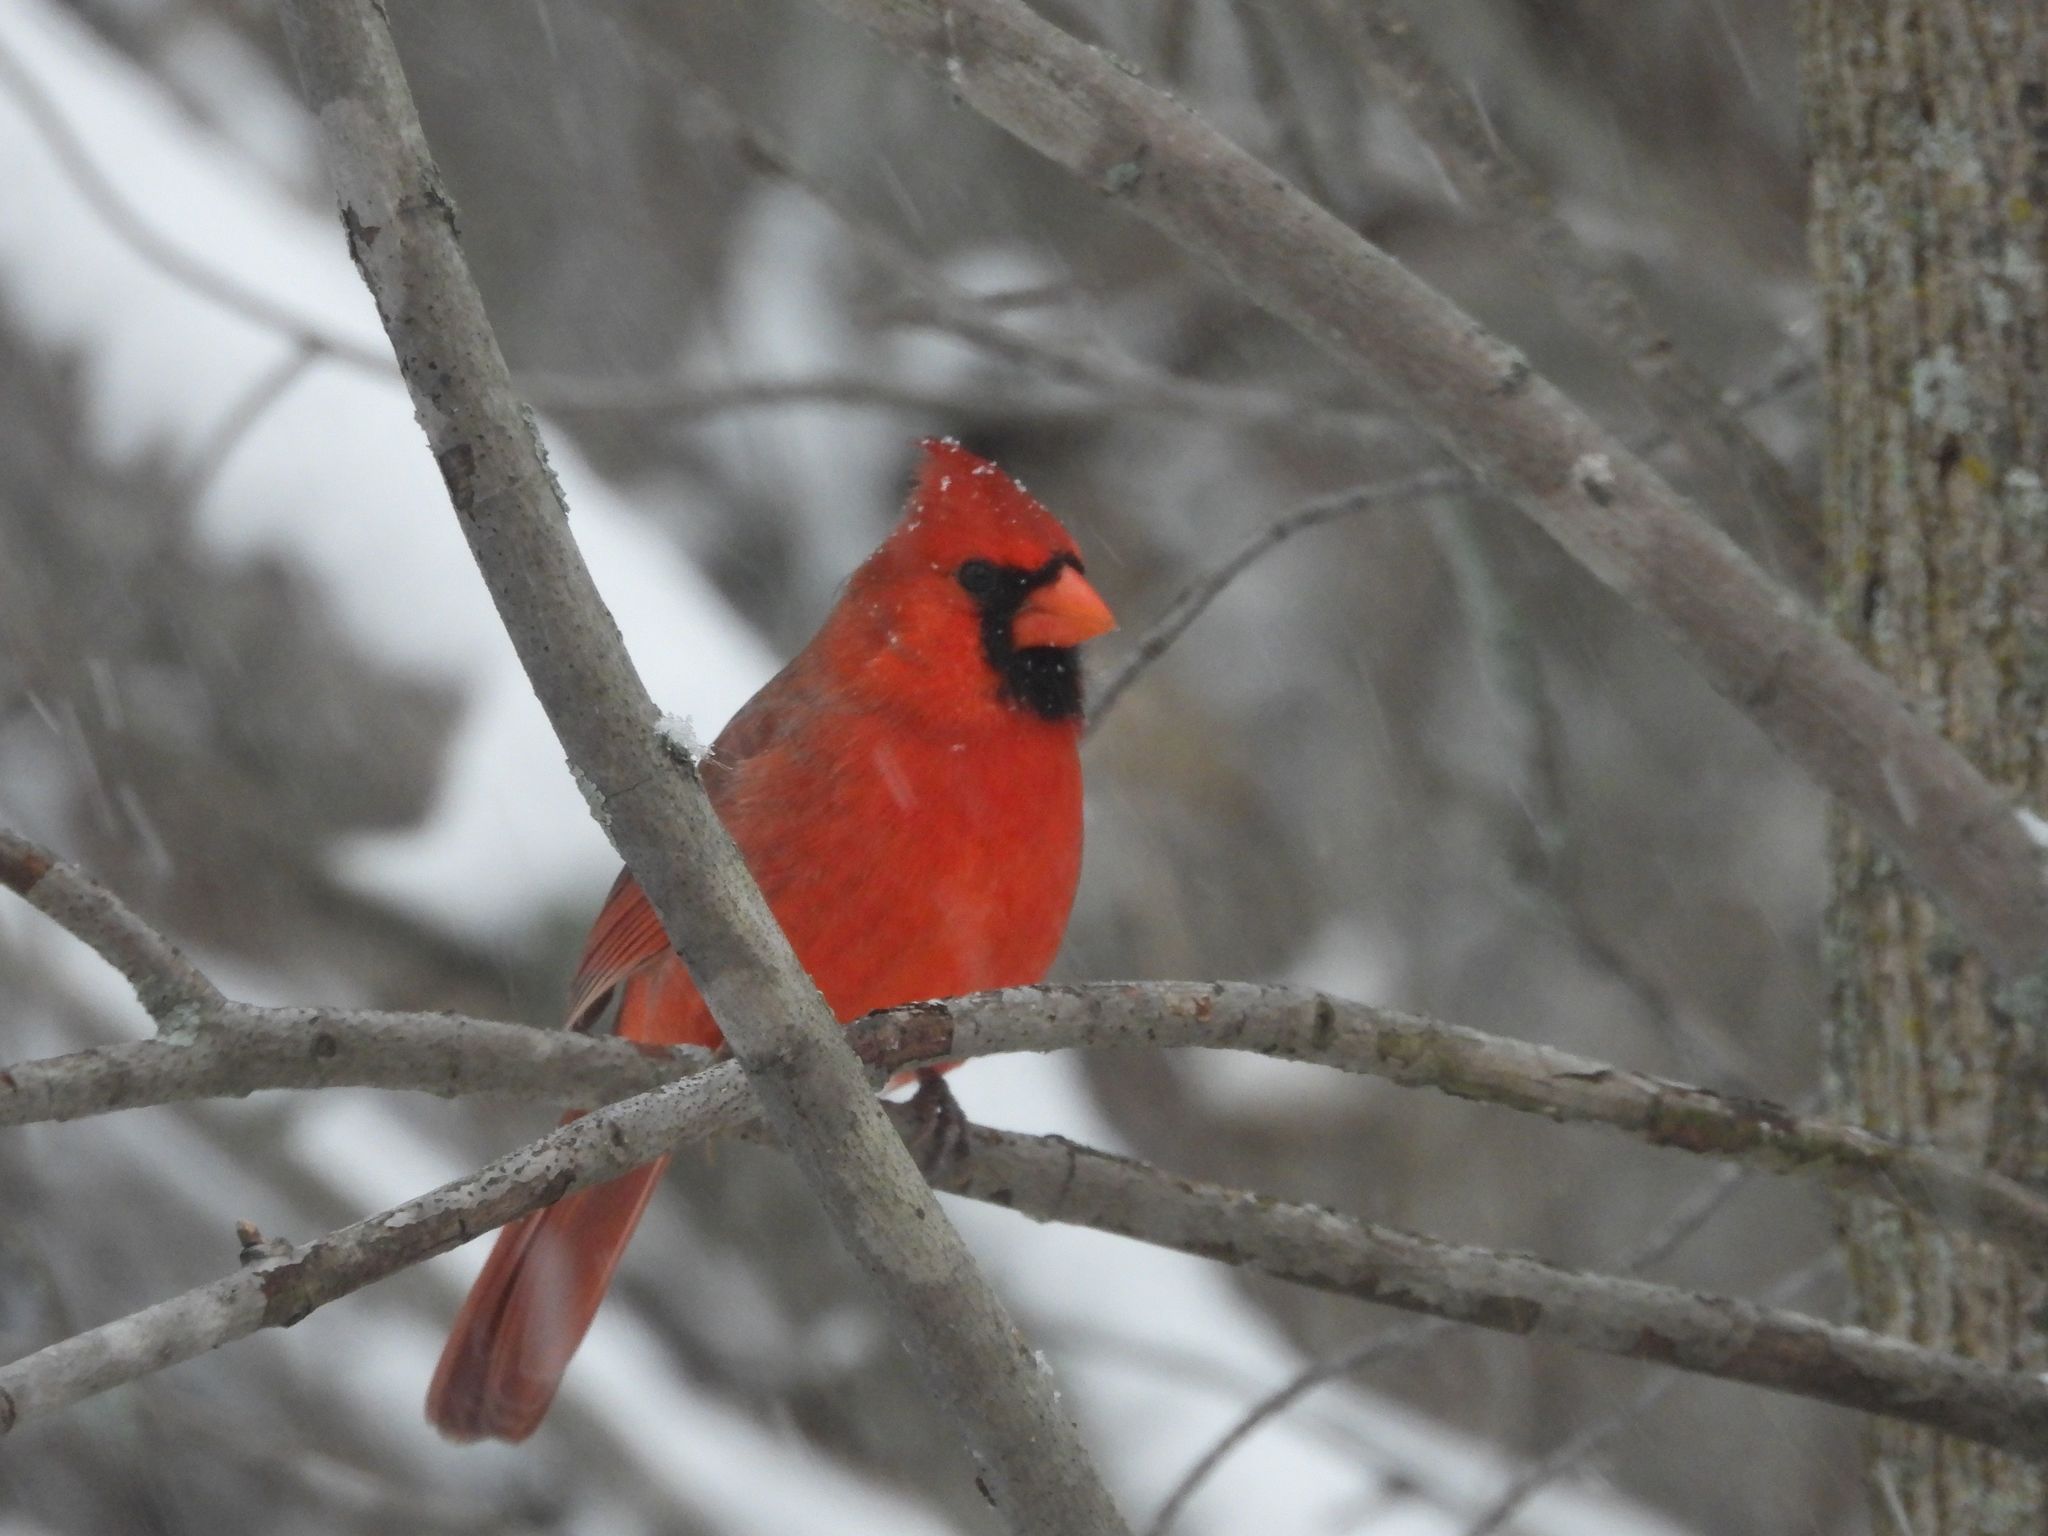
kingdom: Animalia
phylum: Chordata
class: Aves
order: Passeriformes
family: Cardinalidae
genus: Cardinalis
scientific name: Cardinalis cardinalis
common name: Northern cardinal
